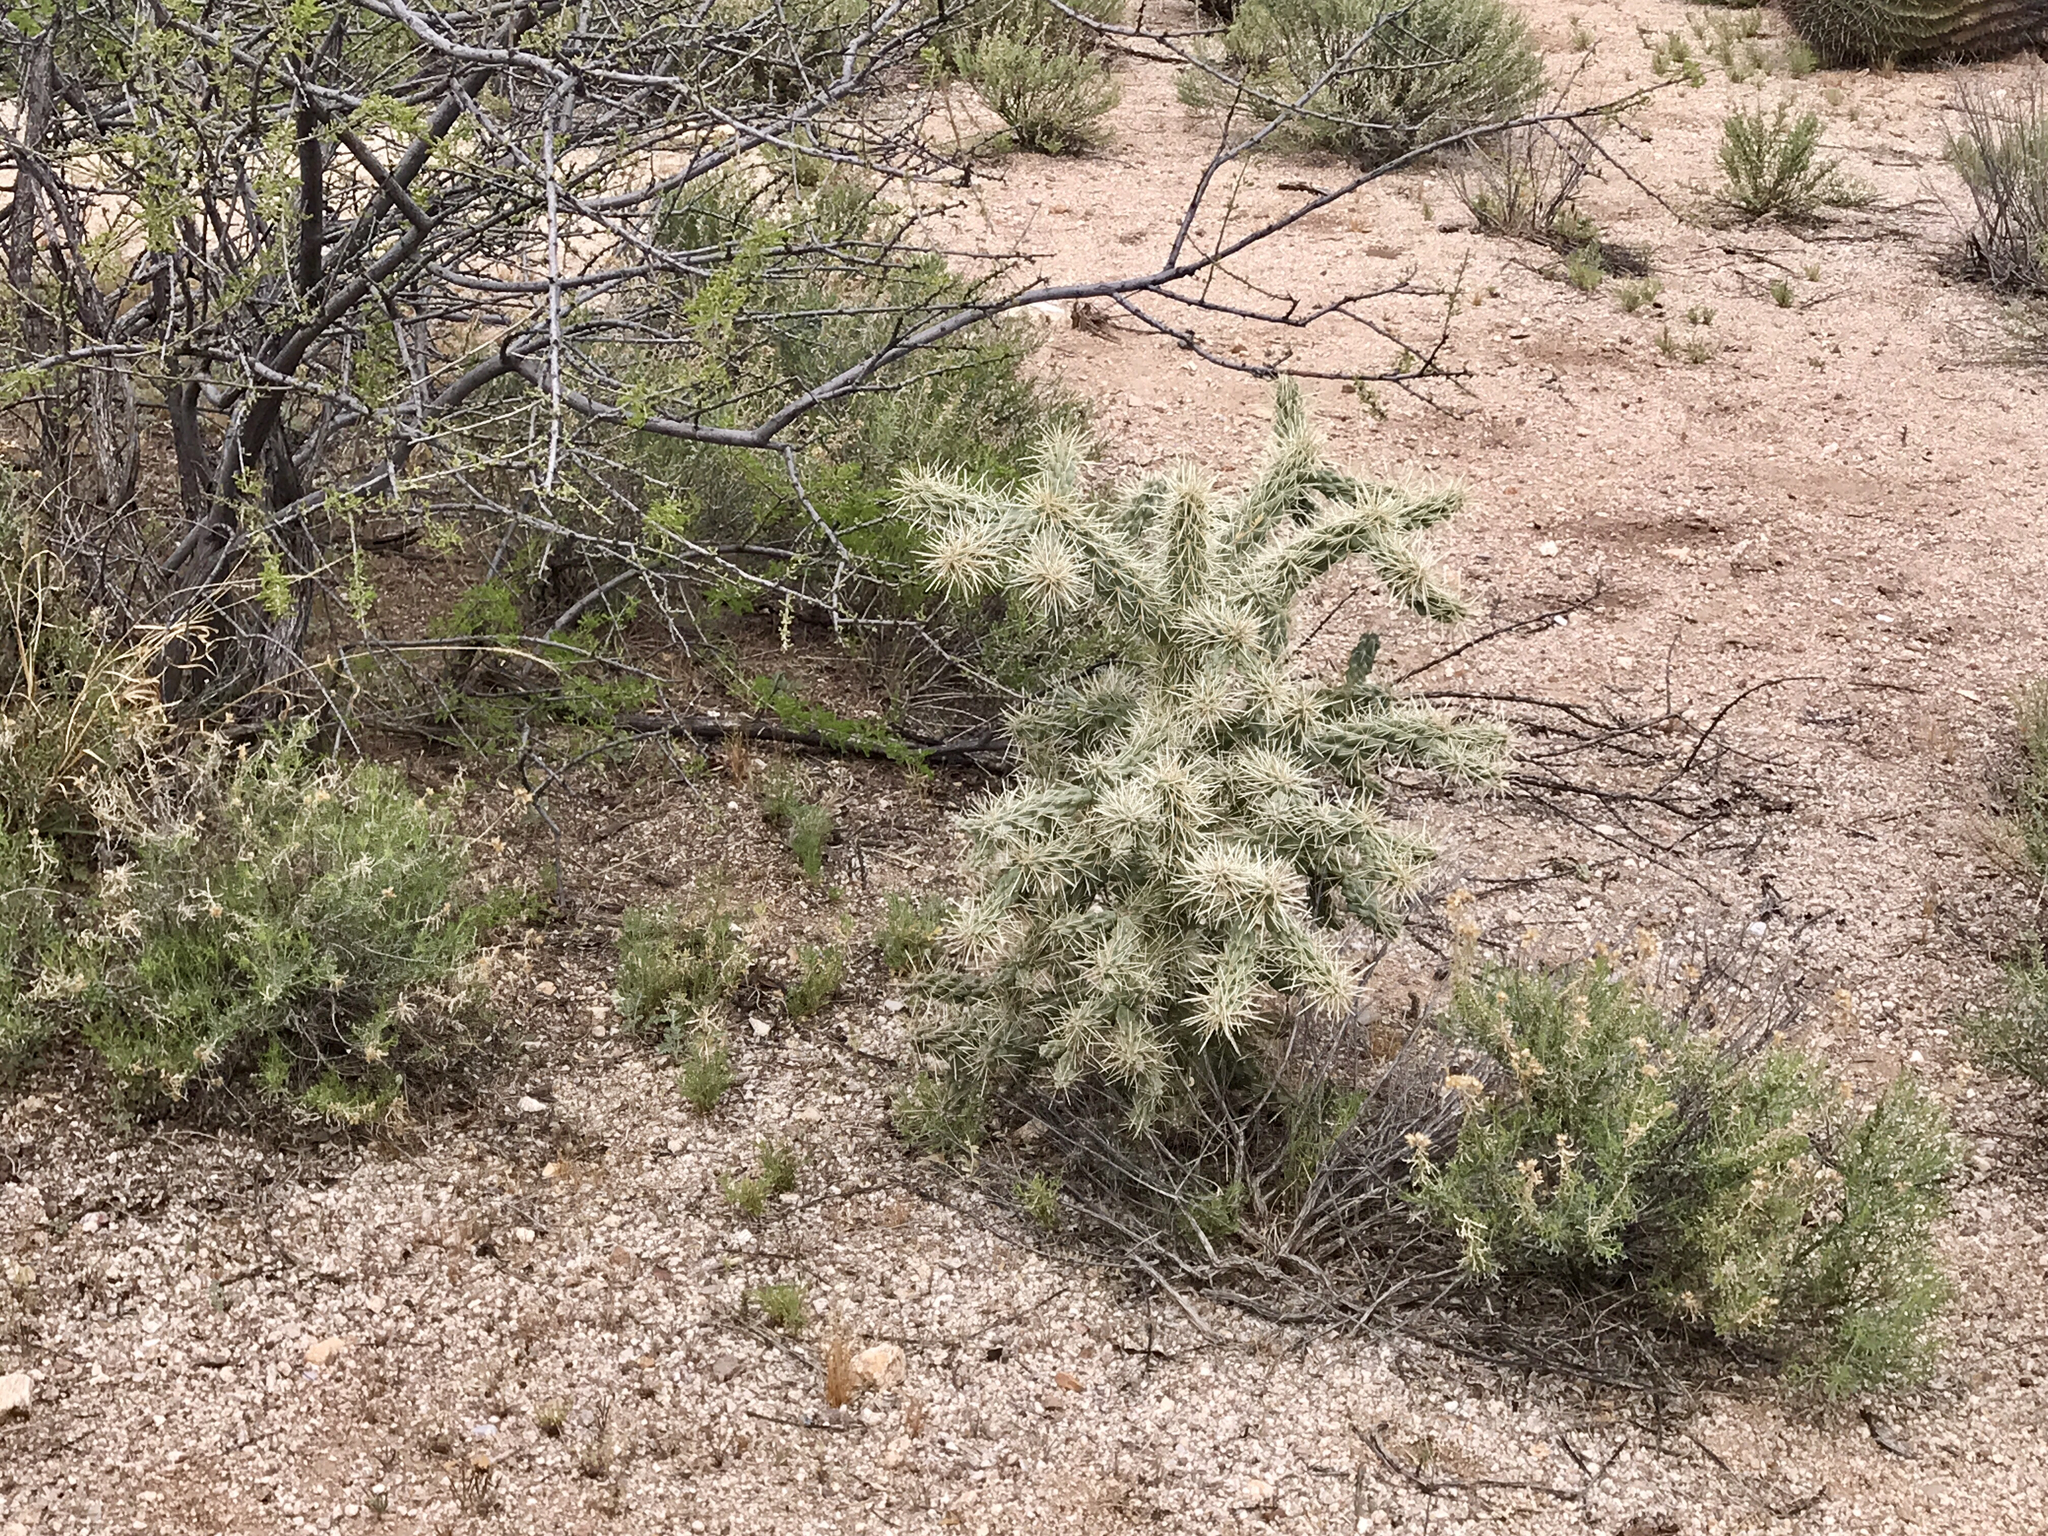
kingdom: Plantae
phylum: Tracheophyta
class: Magnoliopsida
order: Caryophyllales
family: Cactaceae
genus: Cylindropuntia
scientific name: Cylindropuntia fulgida
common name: Jumping cholla
